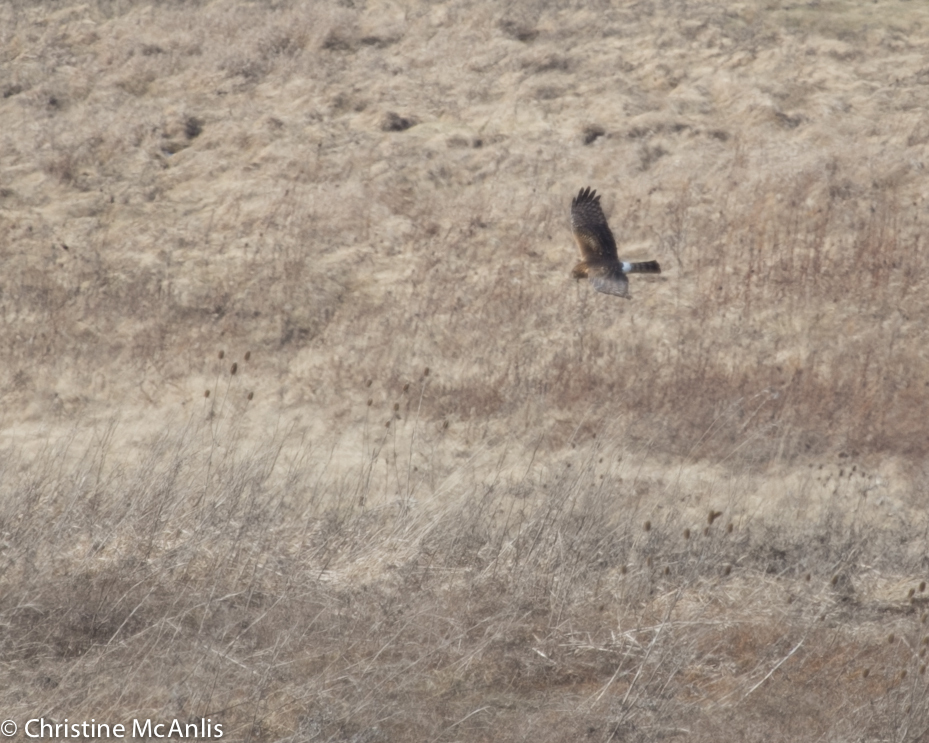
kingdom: Animalia
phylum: Chordata
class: Aves
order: Accipitriformes
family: Accipitridae
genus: Circus
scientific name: Circus cyaneus
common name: Hen harrier
